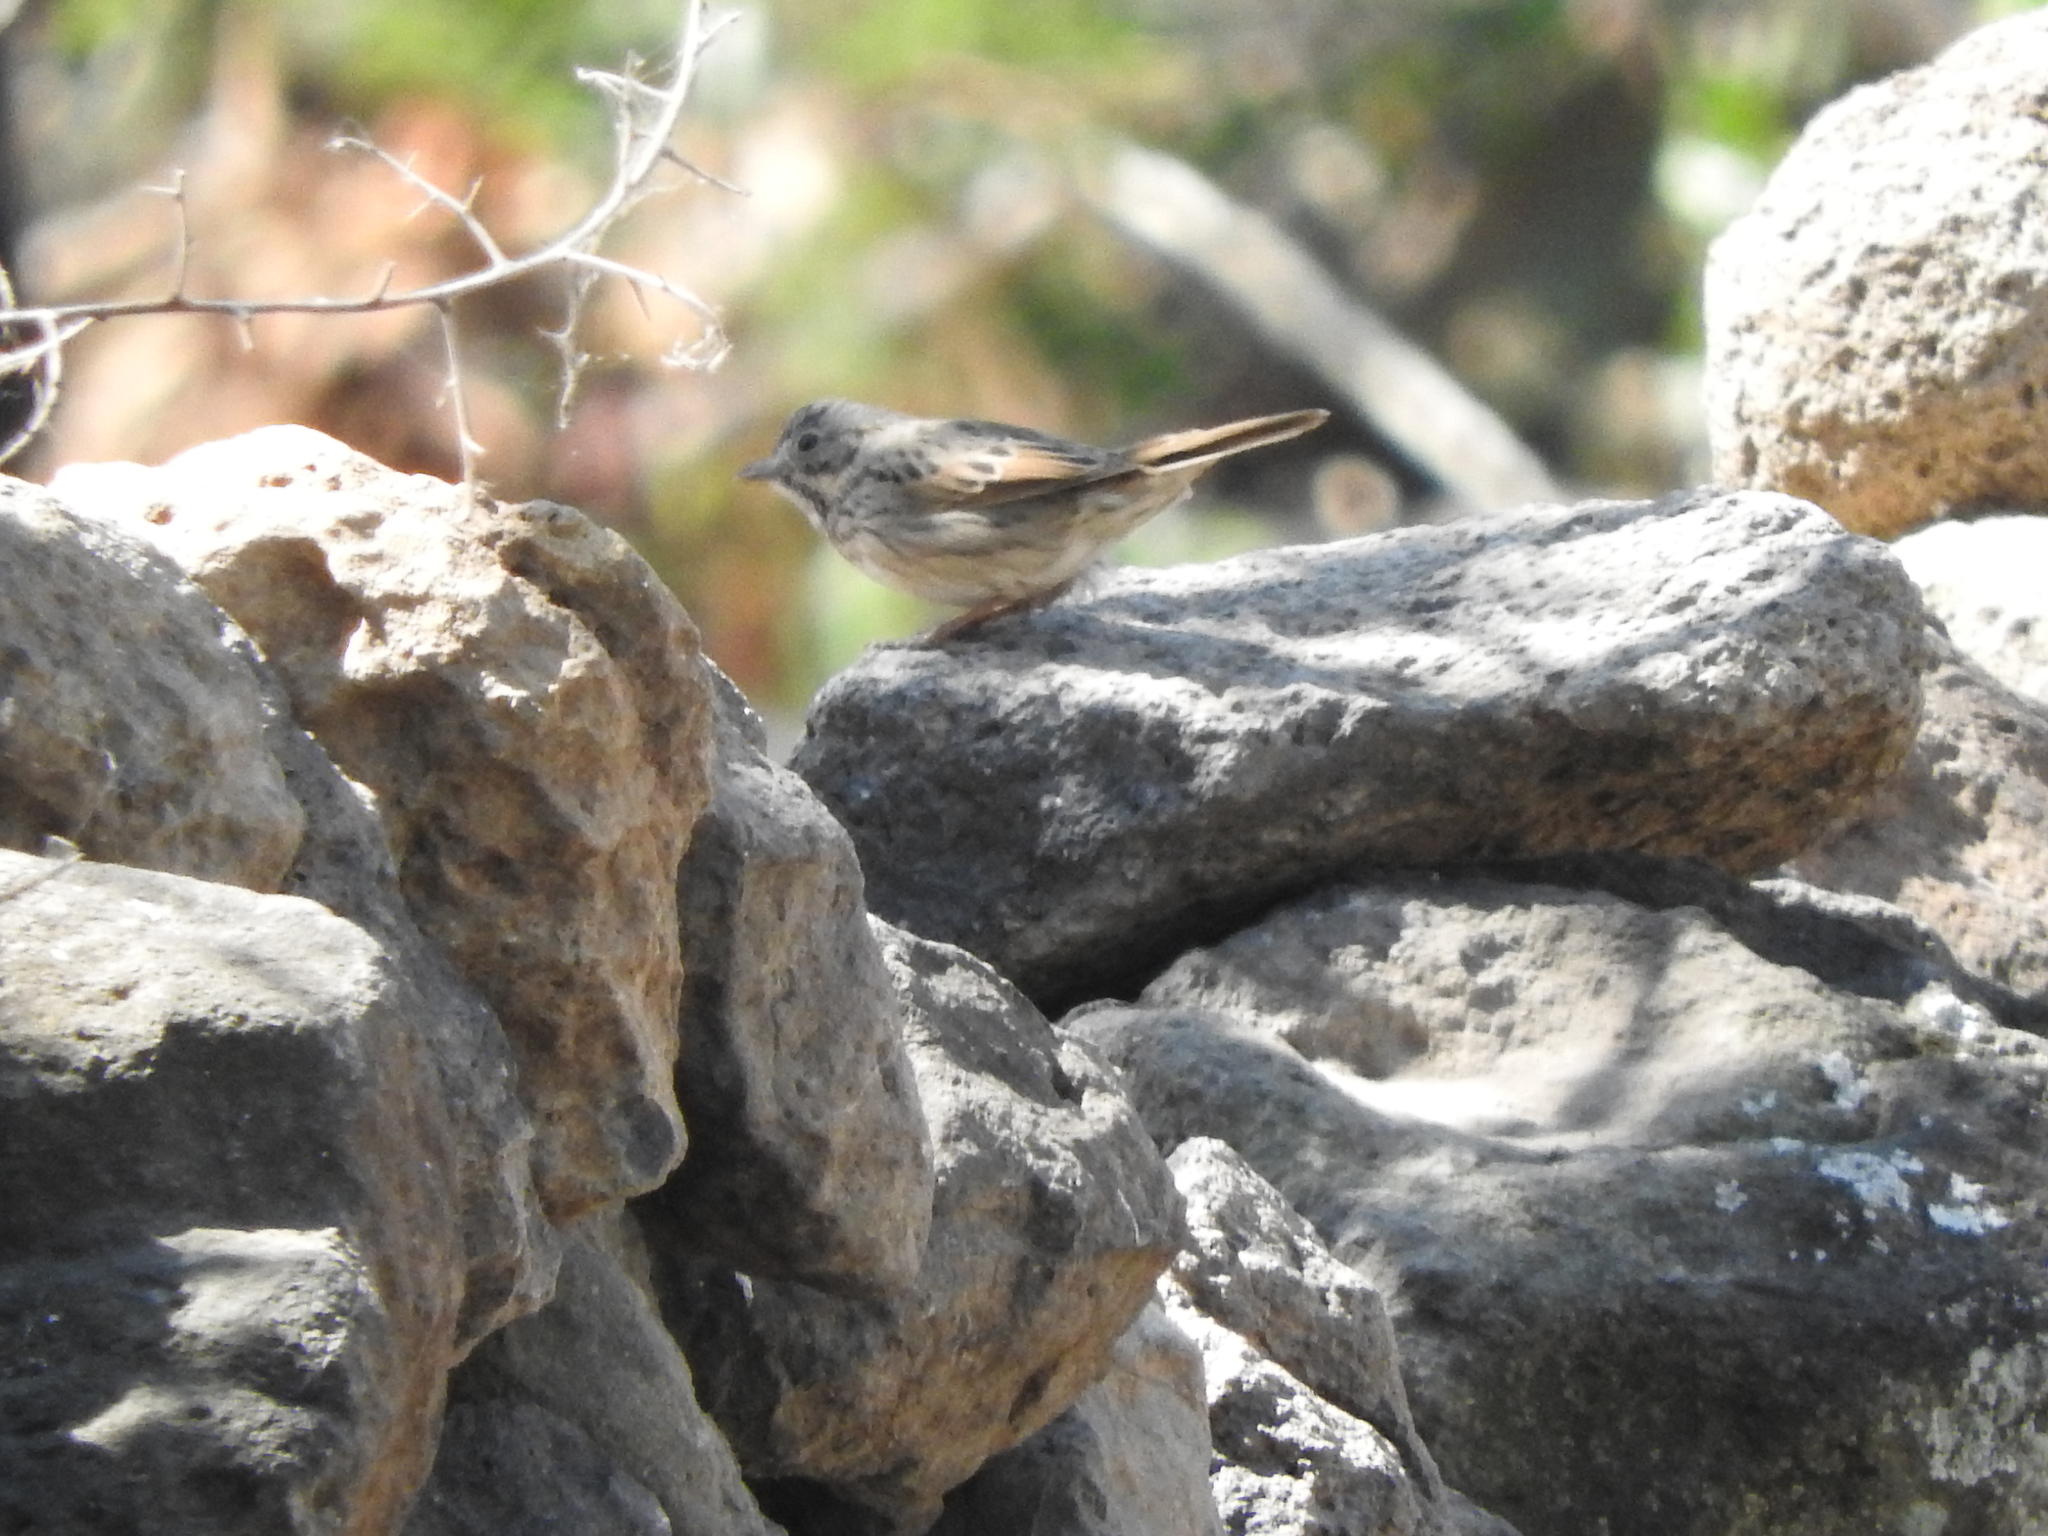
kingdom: Animalia
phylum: Chordata
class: Aves
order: Passeriformes
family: Passerellidae
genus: Melospiza
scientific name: Melospiza lincolnii
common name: Lincoln's sparrow
